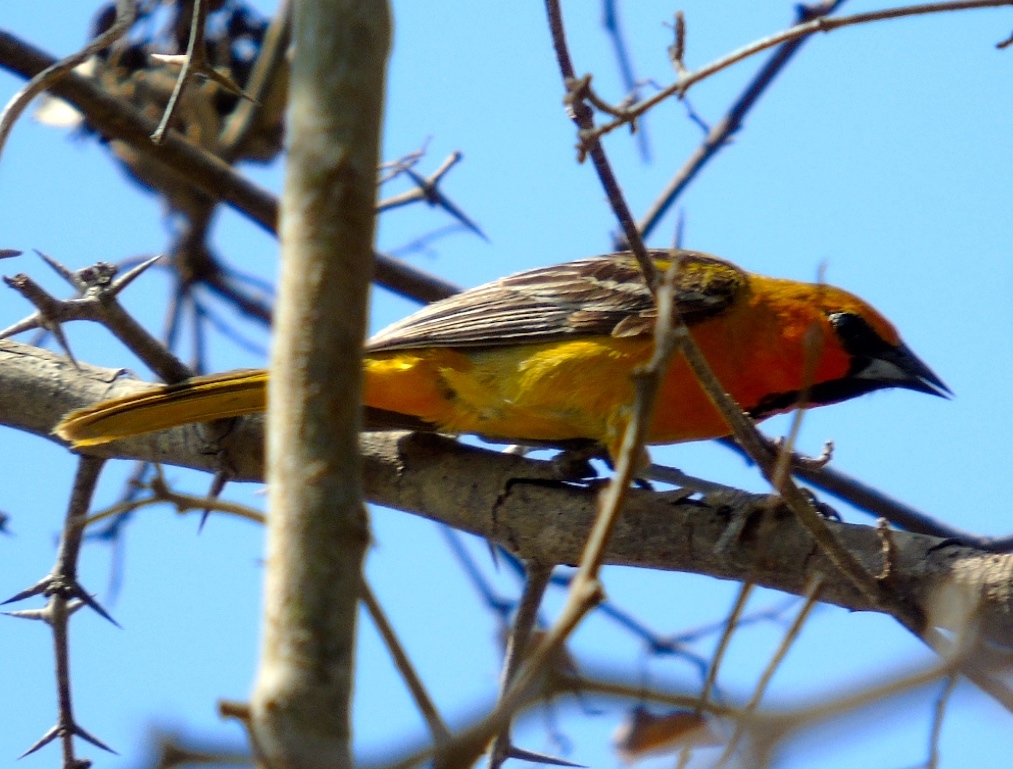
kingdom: Animalia
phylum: Chordata
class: Aves
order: Passeriformes
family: Icteridae
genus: Icterus
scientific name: Icterus pustulatus
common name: Streak-backed oriole
